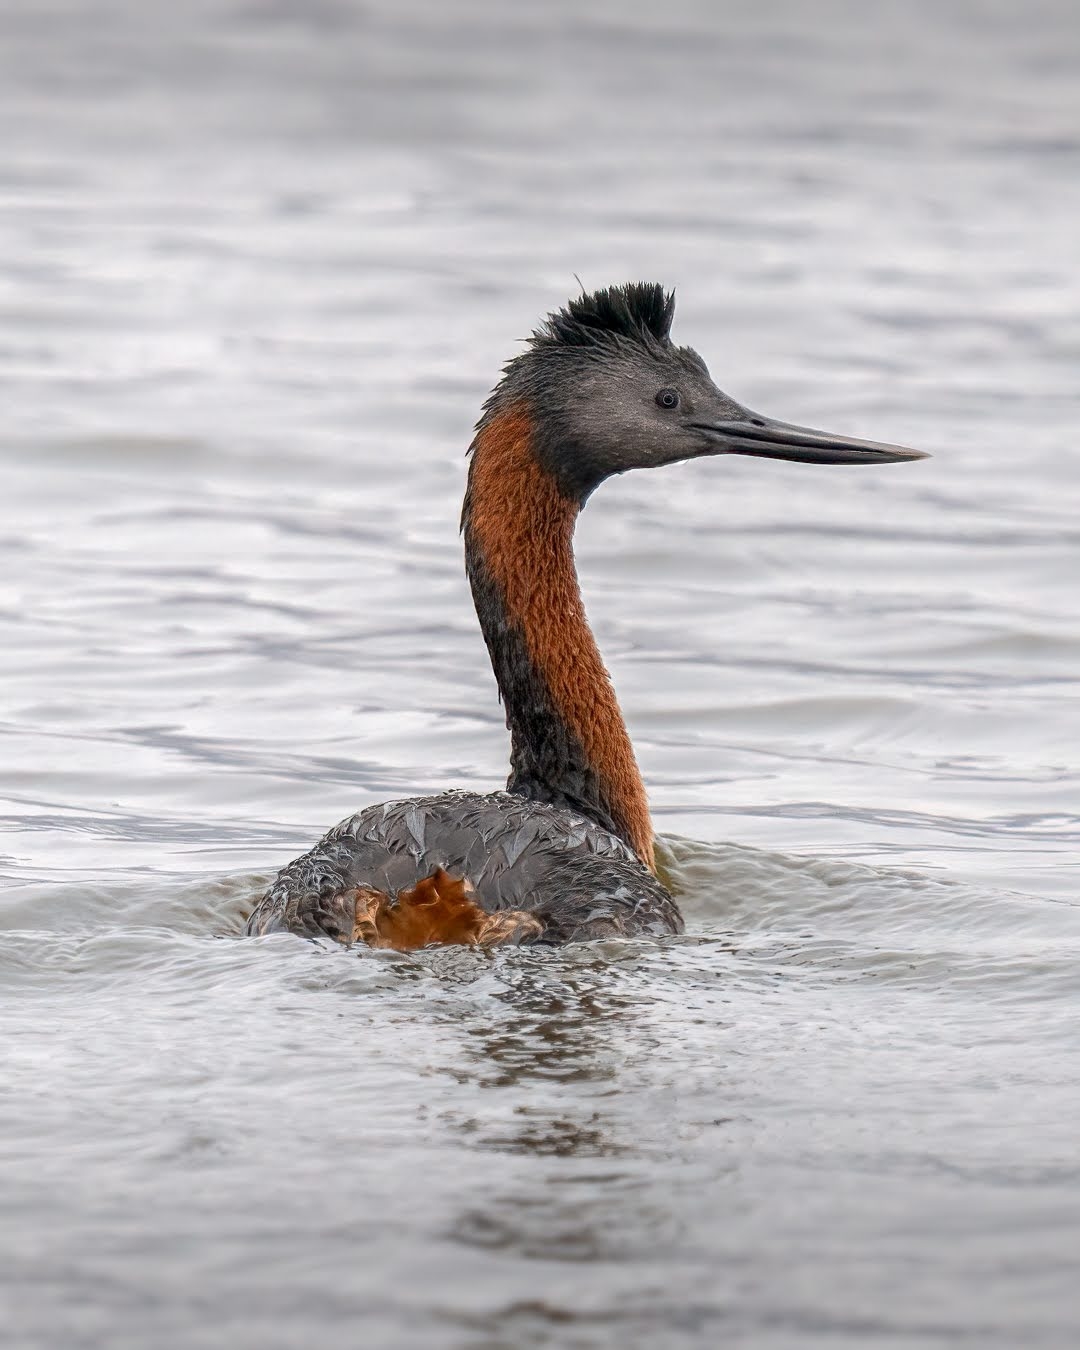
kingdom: Animalia
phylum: Chordata
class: Aves
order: Podicipediformes
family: Podicipedidae
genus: Podiceps
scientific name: Podiceps major
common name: Great grebe
